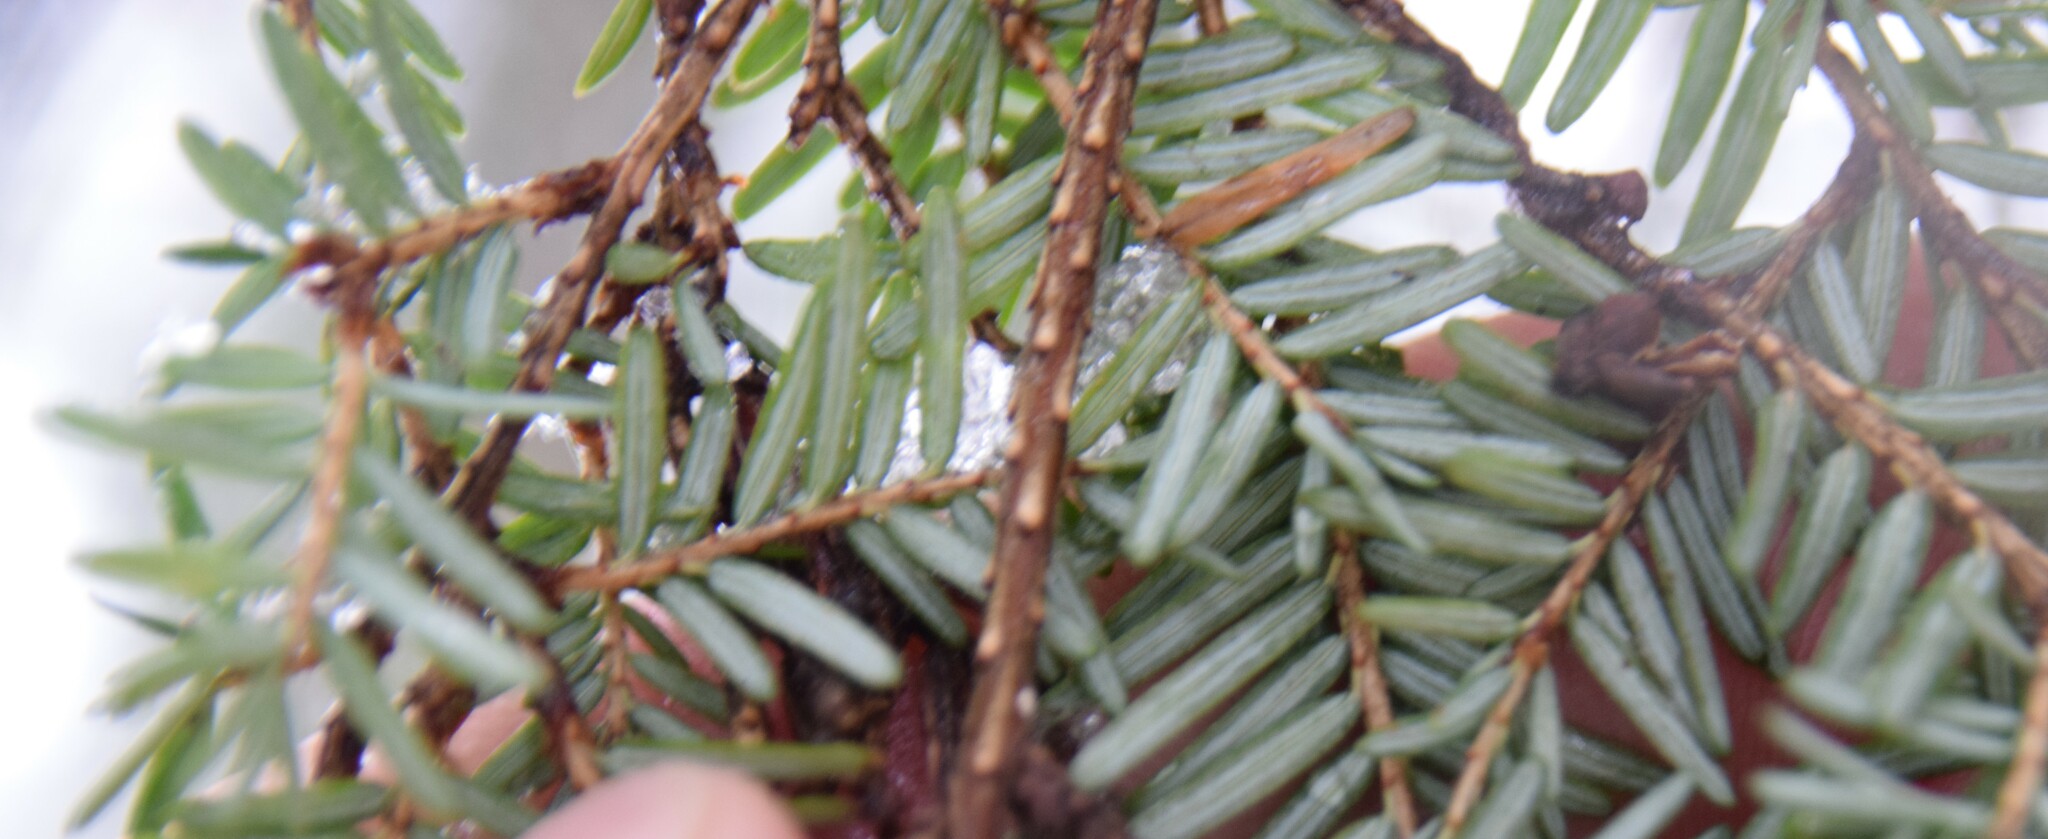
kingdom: Plantae
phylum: Tracheophyta
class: Pinopsida
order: Pinales
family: Pinaceae
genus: Tsuga
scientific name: Tsuga canadensis
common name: Eastern hemlock
